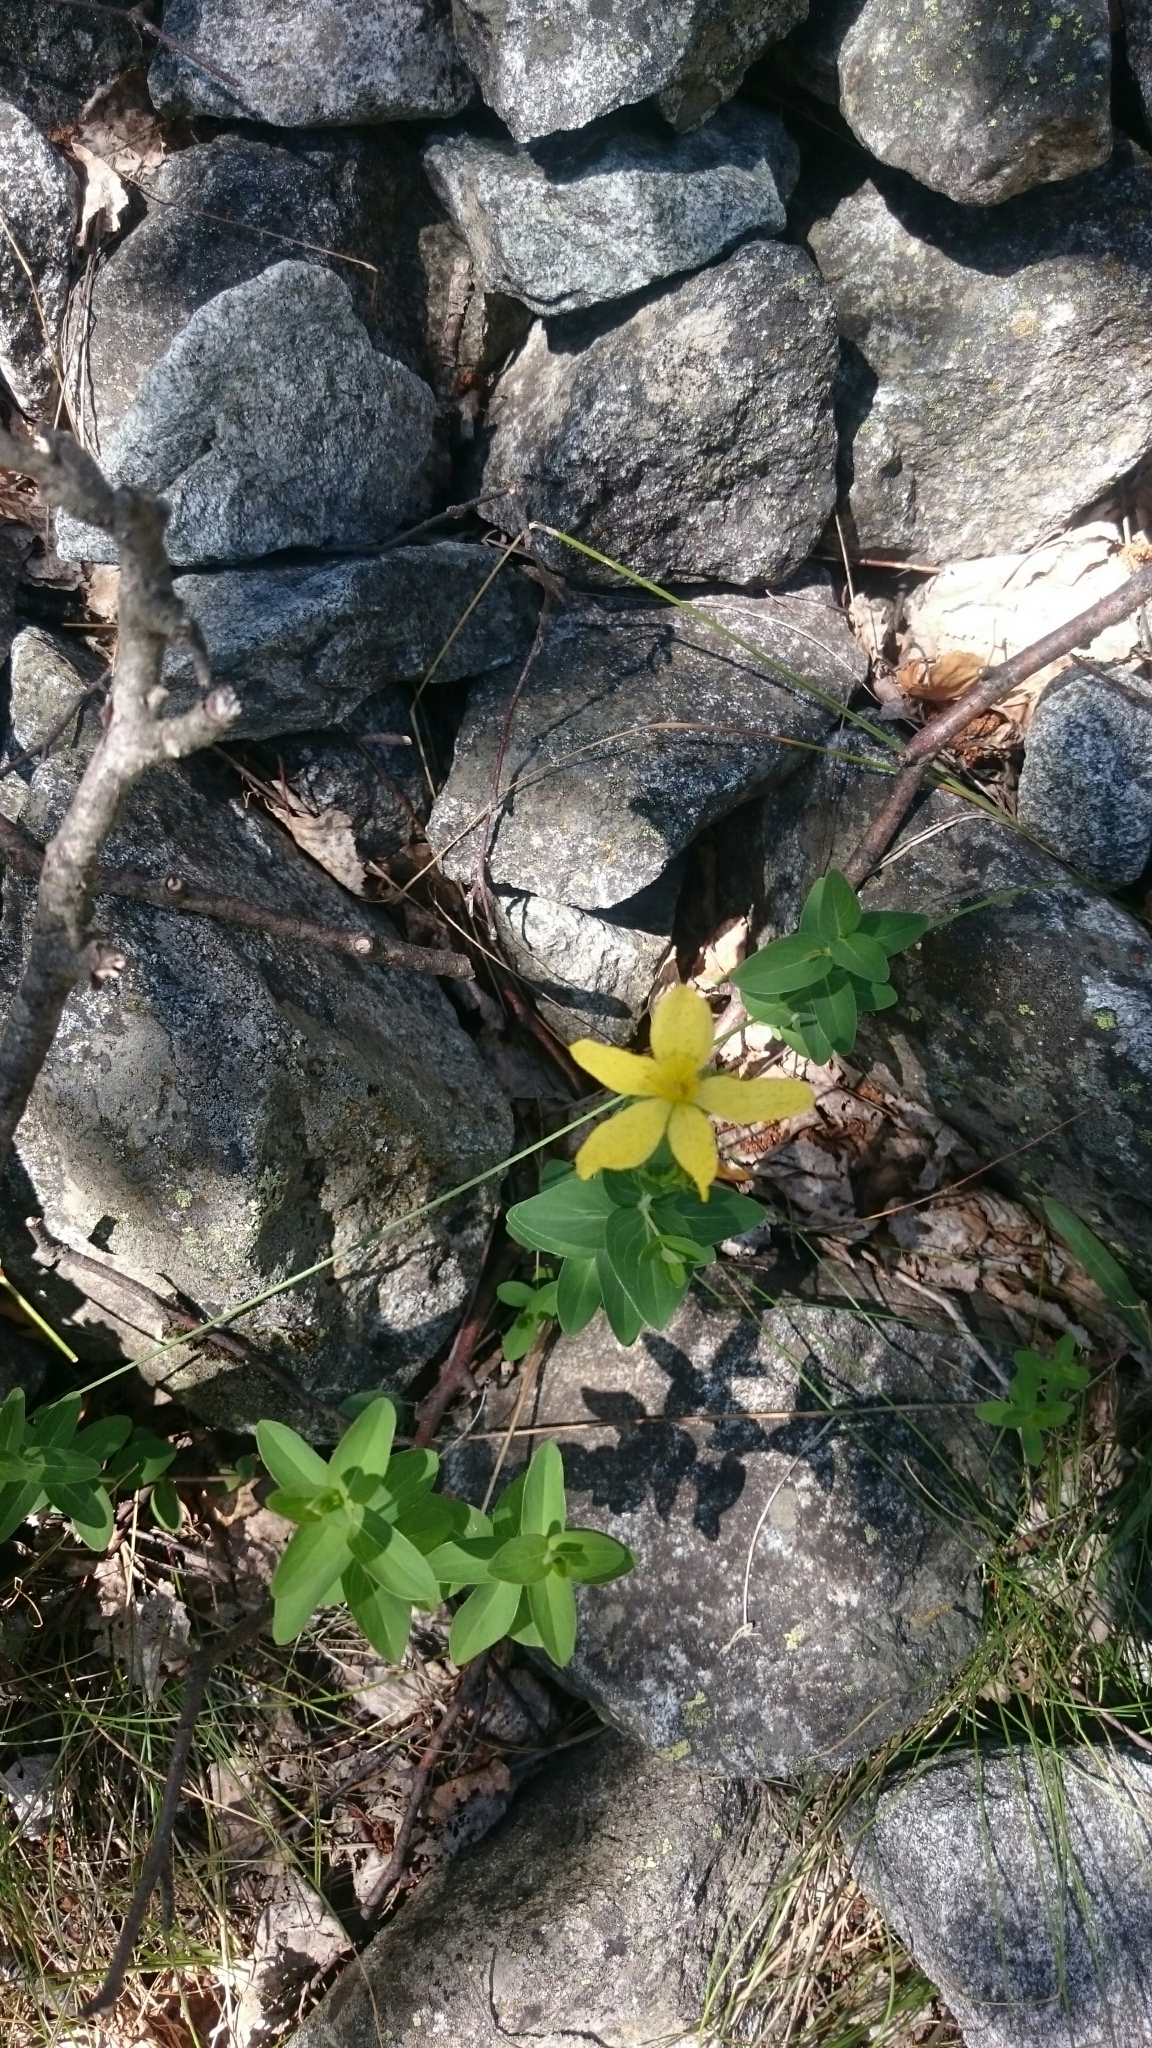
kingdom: Plantae
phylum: Tracheophyta
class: Magnoliopsida
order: Malpighiales
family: Hypericaceae
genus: Hypericum
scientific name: Hypericum richeri
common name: Alpine st john's-wort
